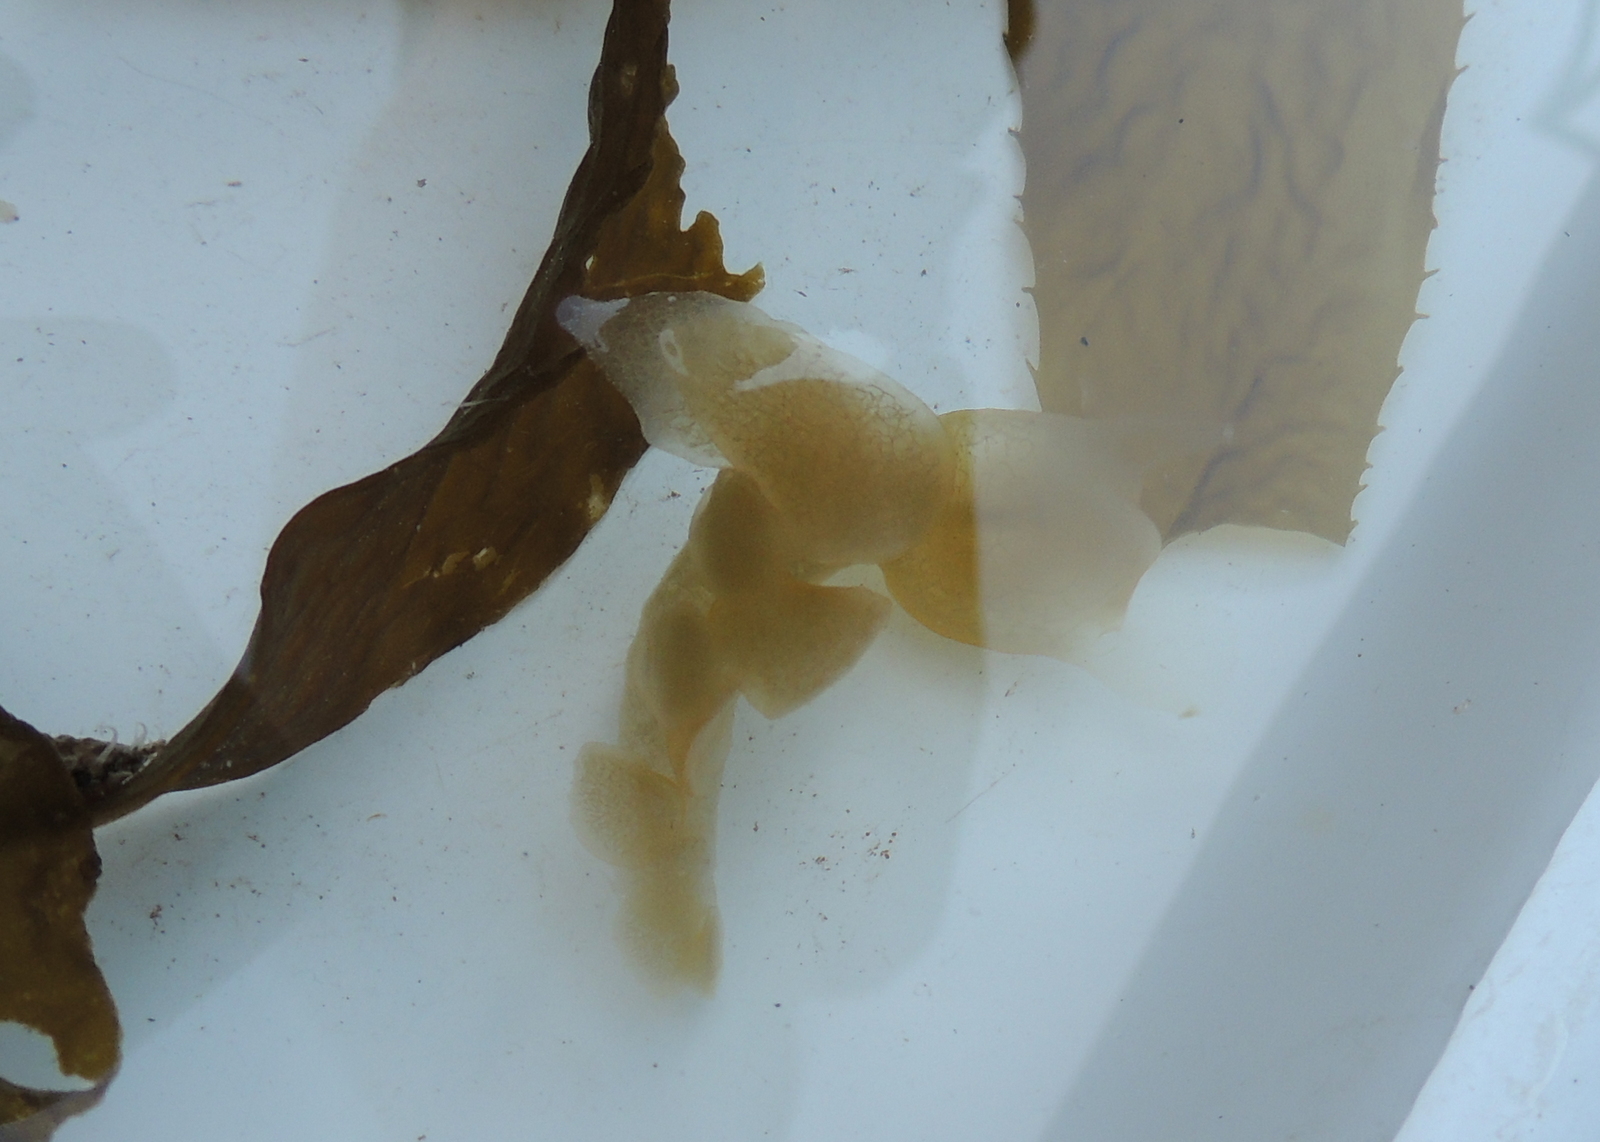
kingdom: Animalia
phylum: Mollusca
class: Gastropoda
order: Nudibranchia
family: Tethydidae
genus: Melibe
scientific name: Melibe leonina
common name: Lion nudibranch
